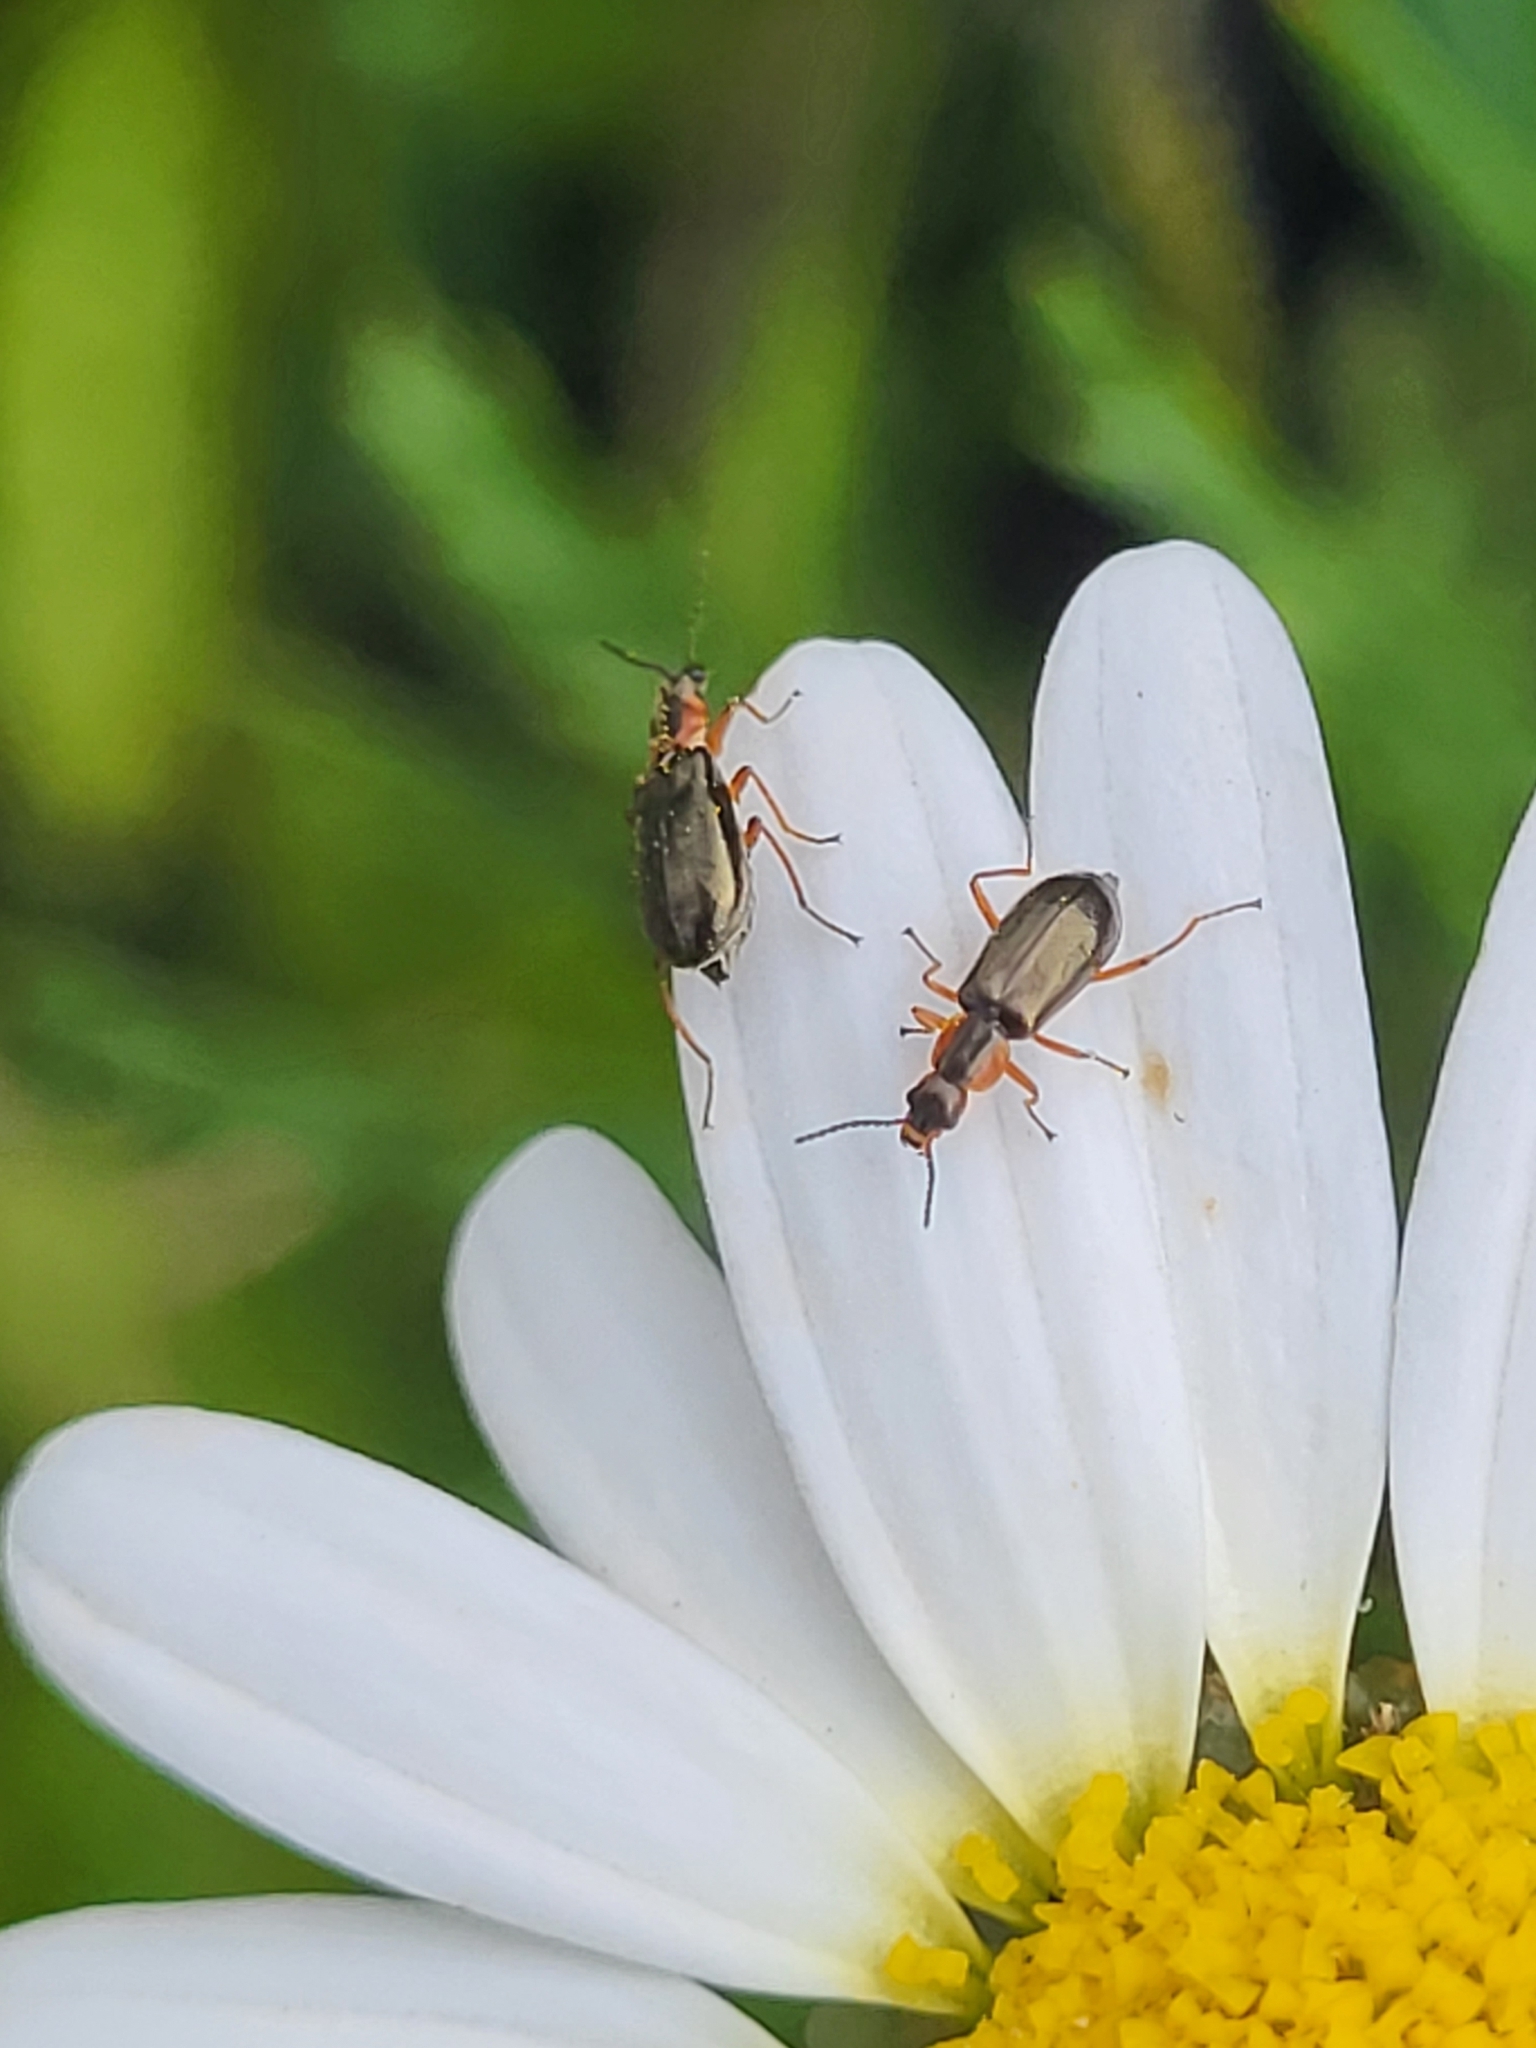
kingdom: Animalia
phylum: Arthropoda
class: Insecta
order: Coleoptera
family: Malachiidae
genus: Attalus
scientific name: Attalus ornatissimus
